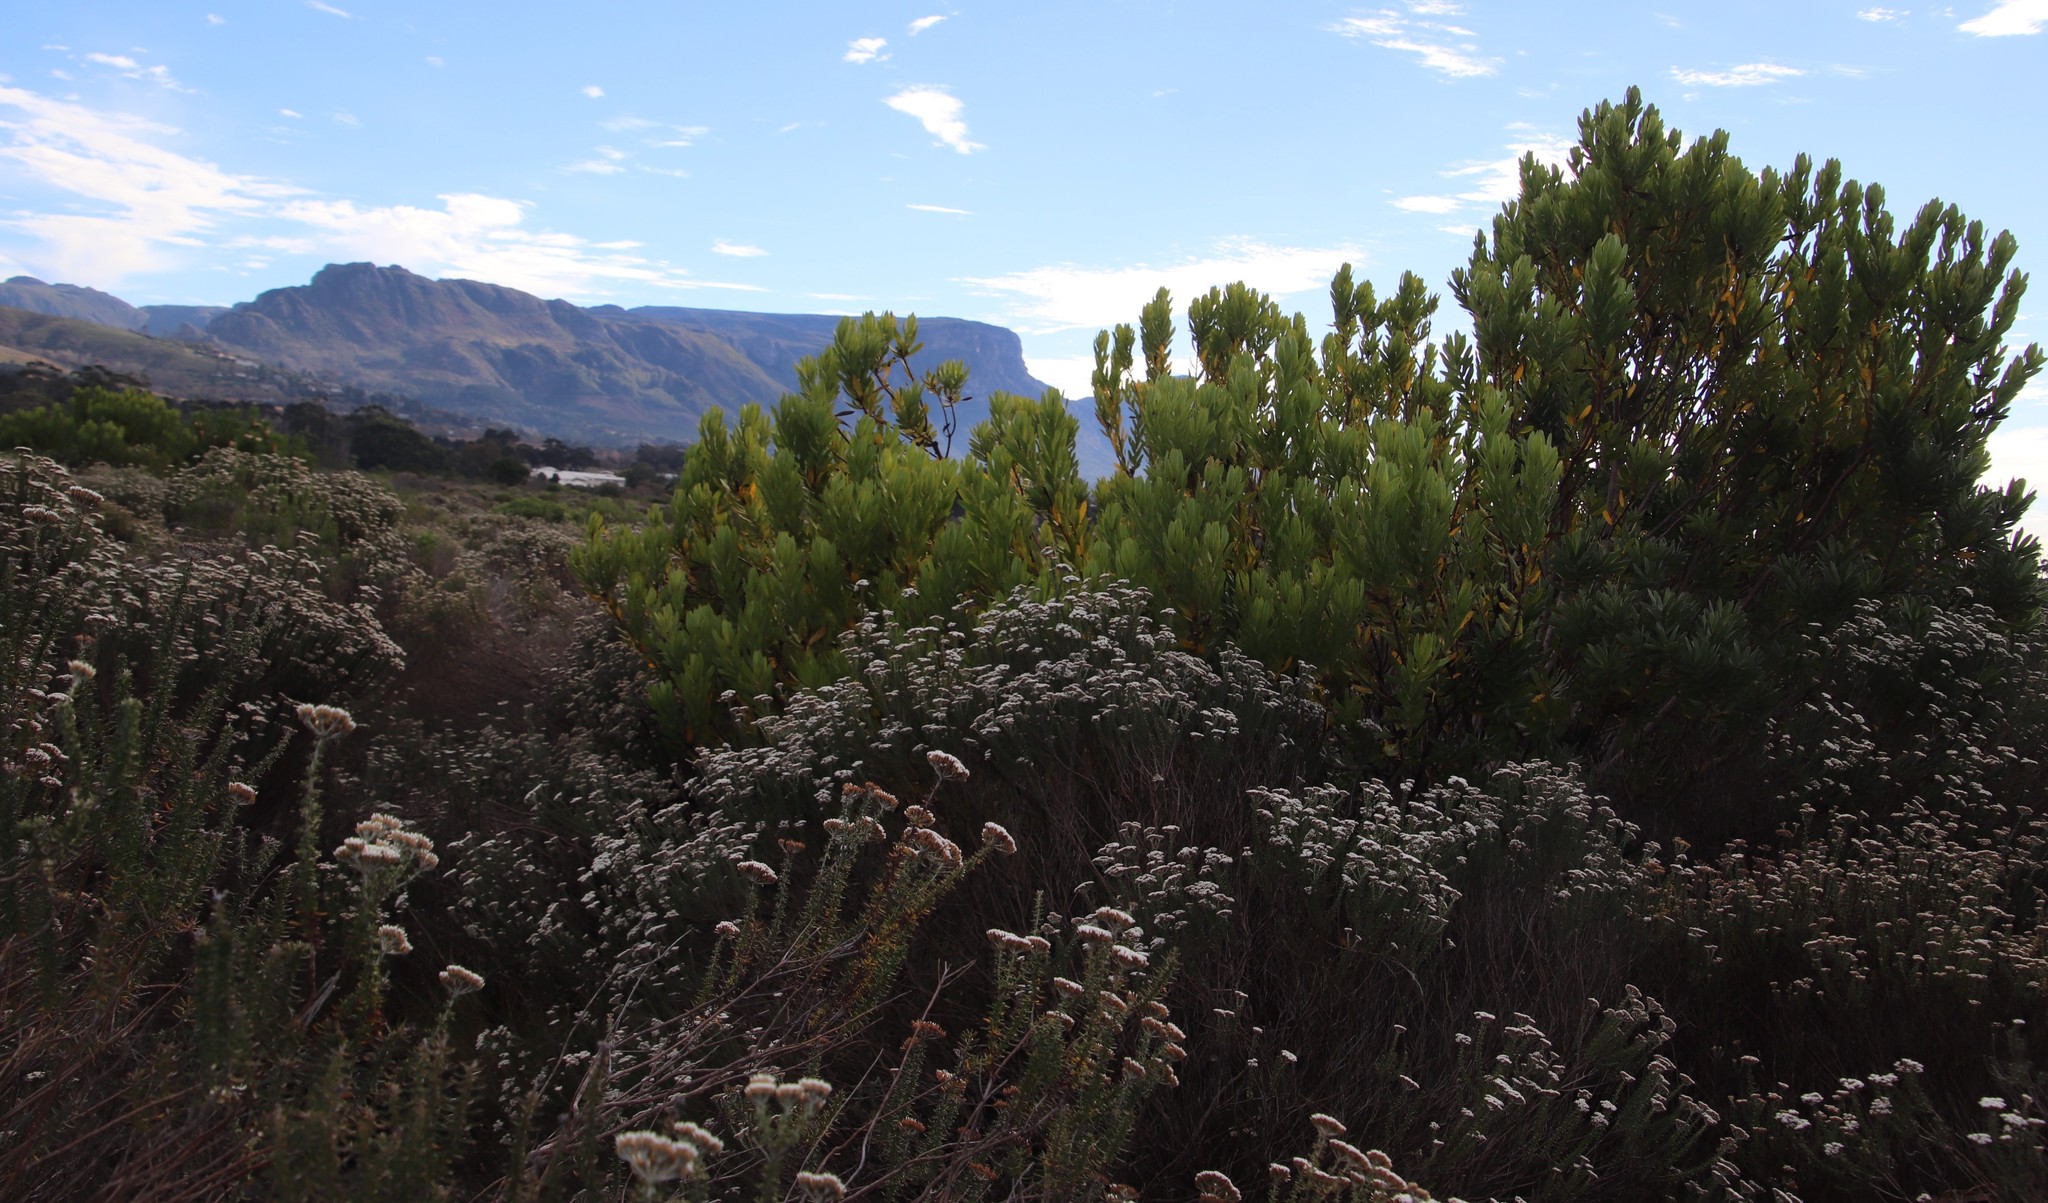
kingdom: Plantae
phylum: Tracheophyta
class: Magnoliopsida
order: Proteales
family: Proteaceae
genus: Leucadendron
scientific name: Leucadendron laureolum
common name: Golden sunshinebush
